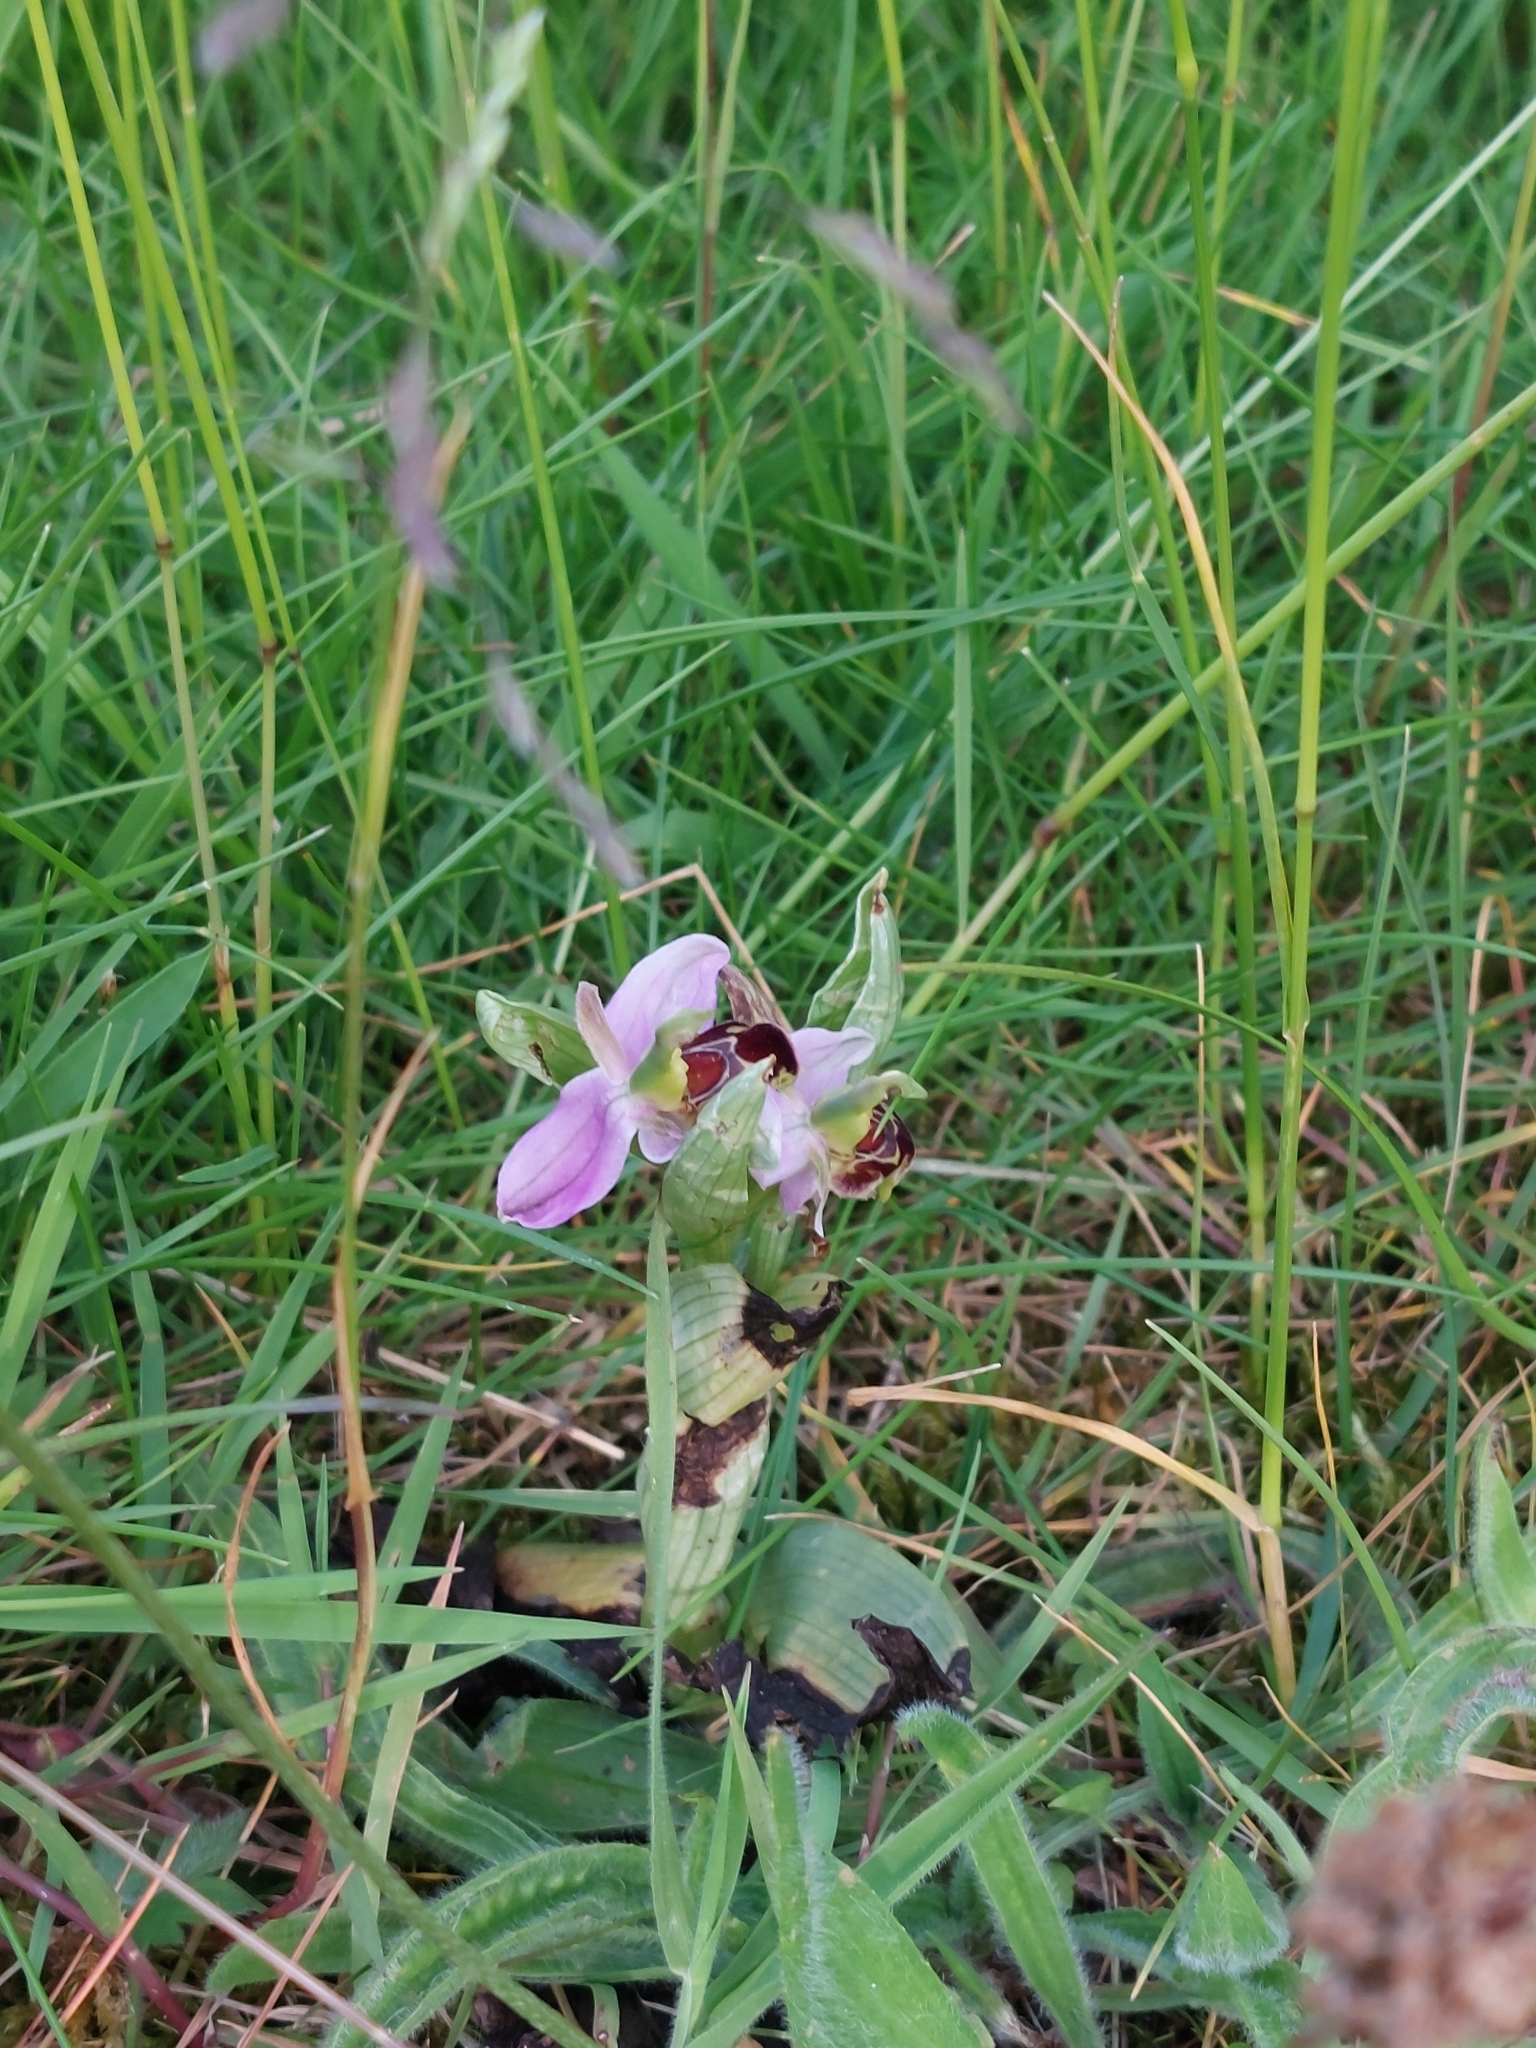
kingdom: Plantae
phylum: Tracheophyta
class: Liliopsida
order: Asparagales
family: Orchidaceae
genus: Ophrys
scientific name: Ophrys apifera
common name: Bee orchid
